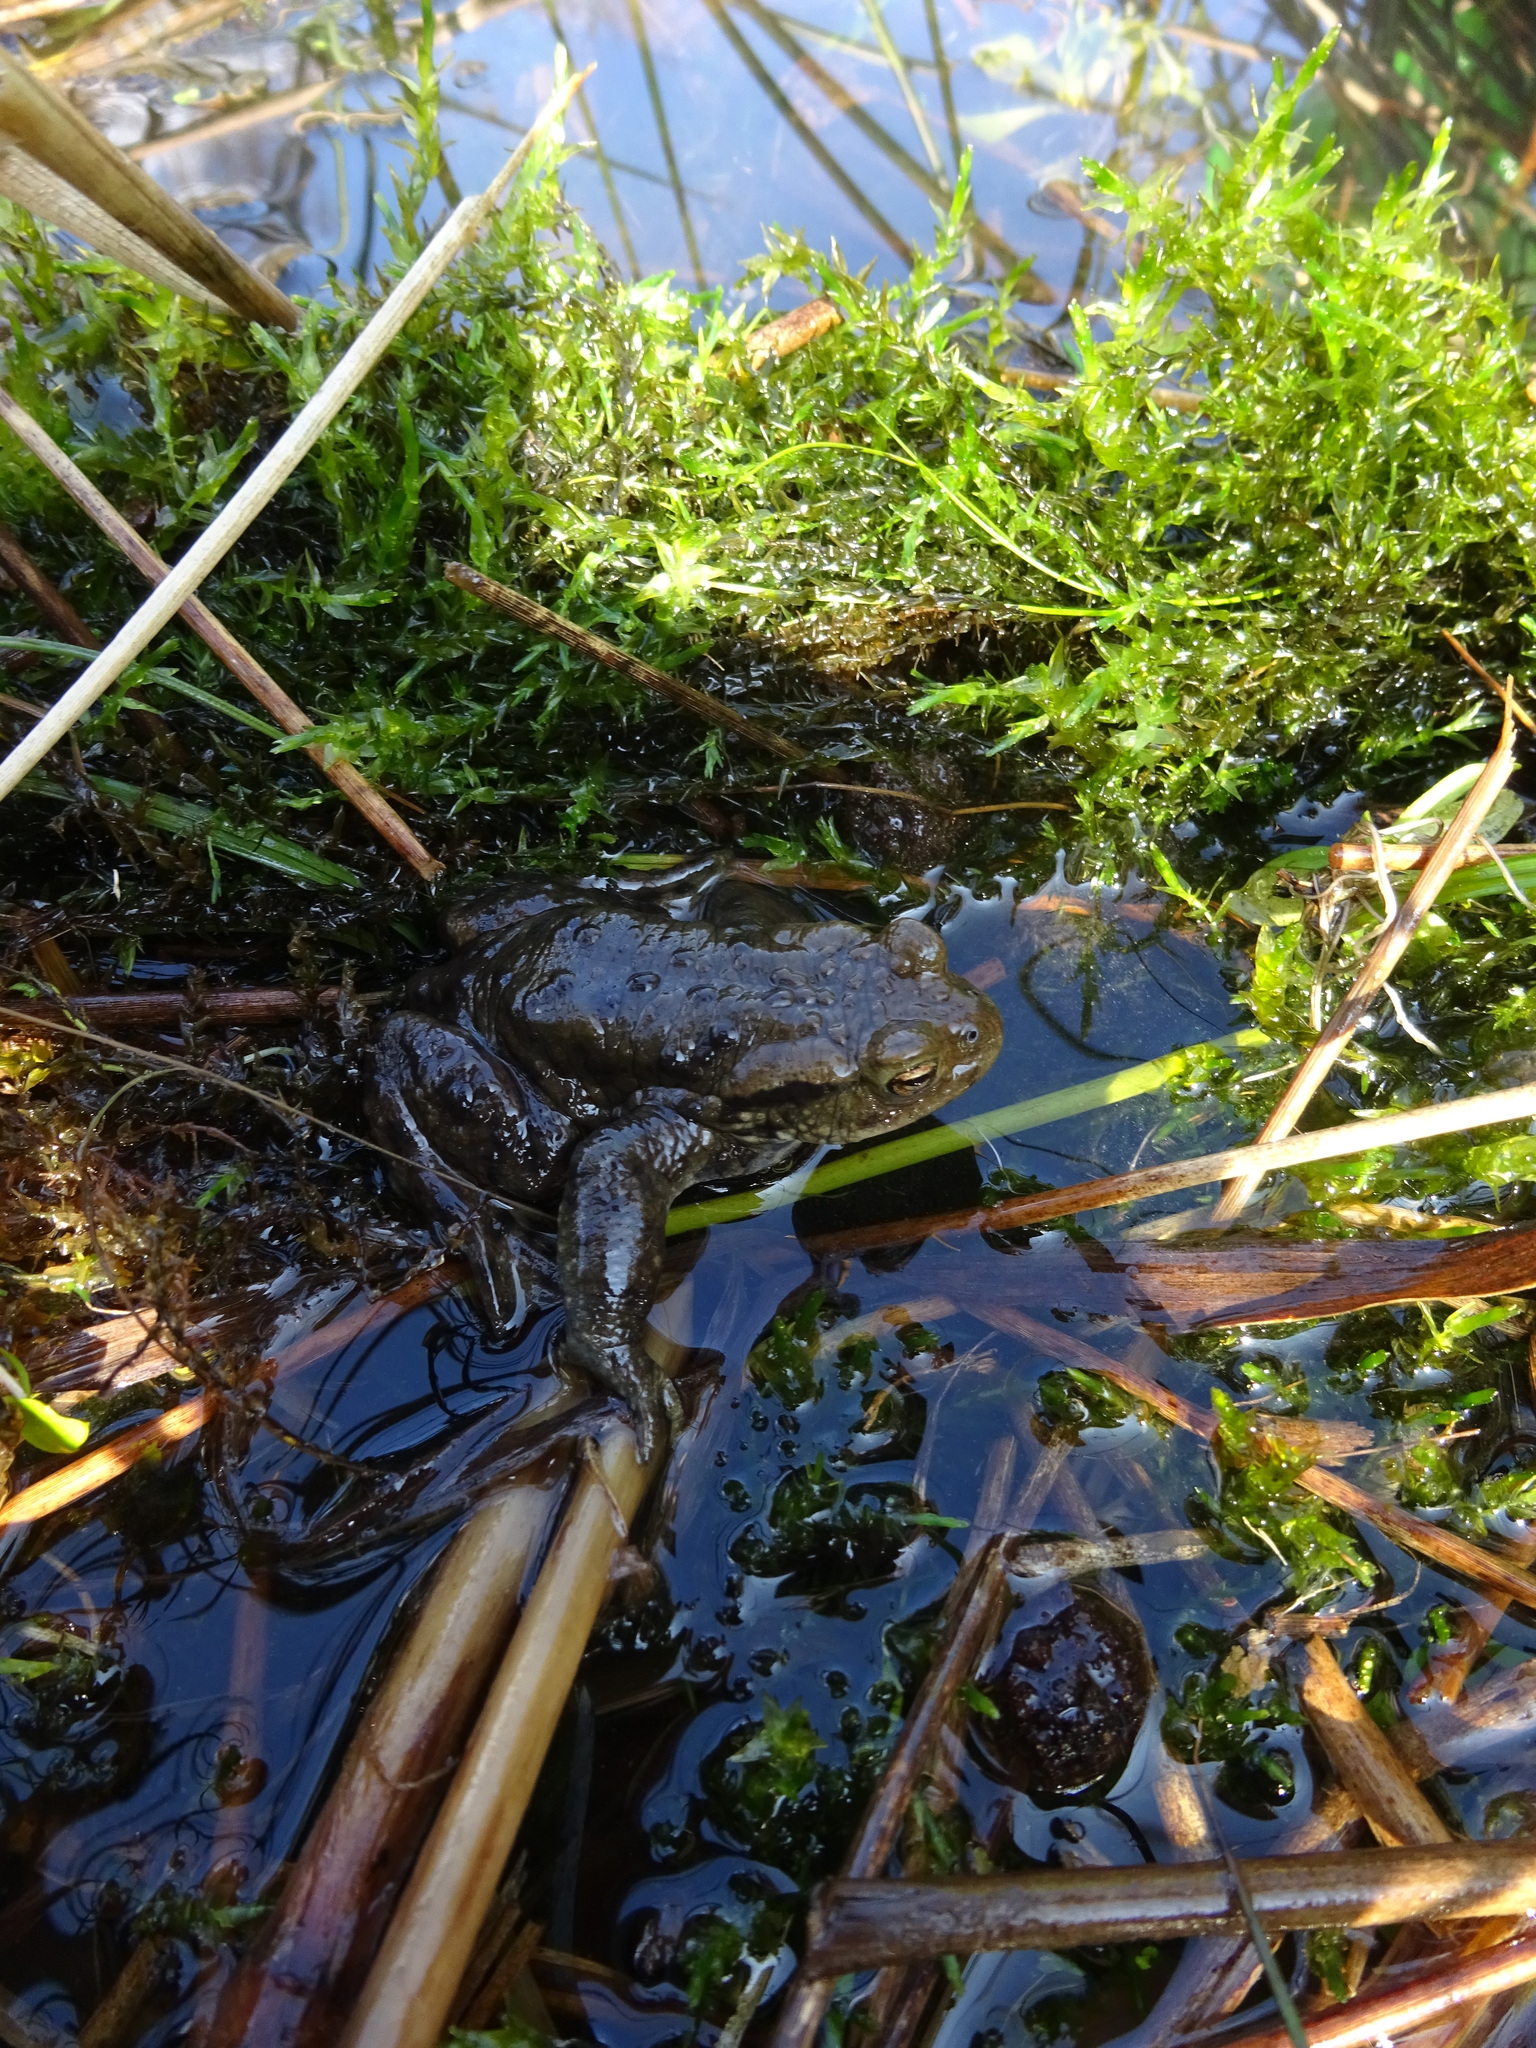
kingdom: Animalia
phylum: Chordata
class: Amphibia
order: Anura
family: Bufonidae
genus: Bufo
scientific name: Bufo bufo
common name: Common toad
